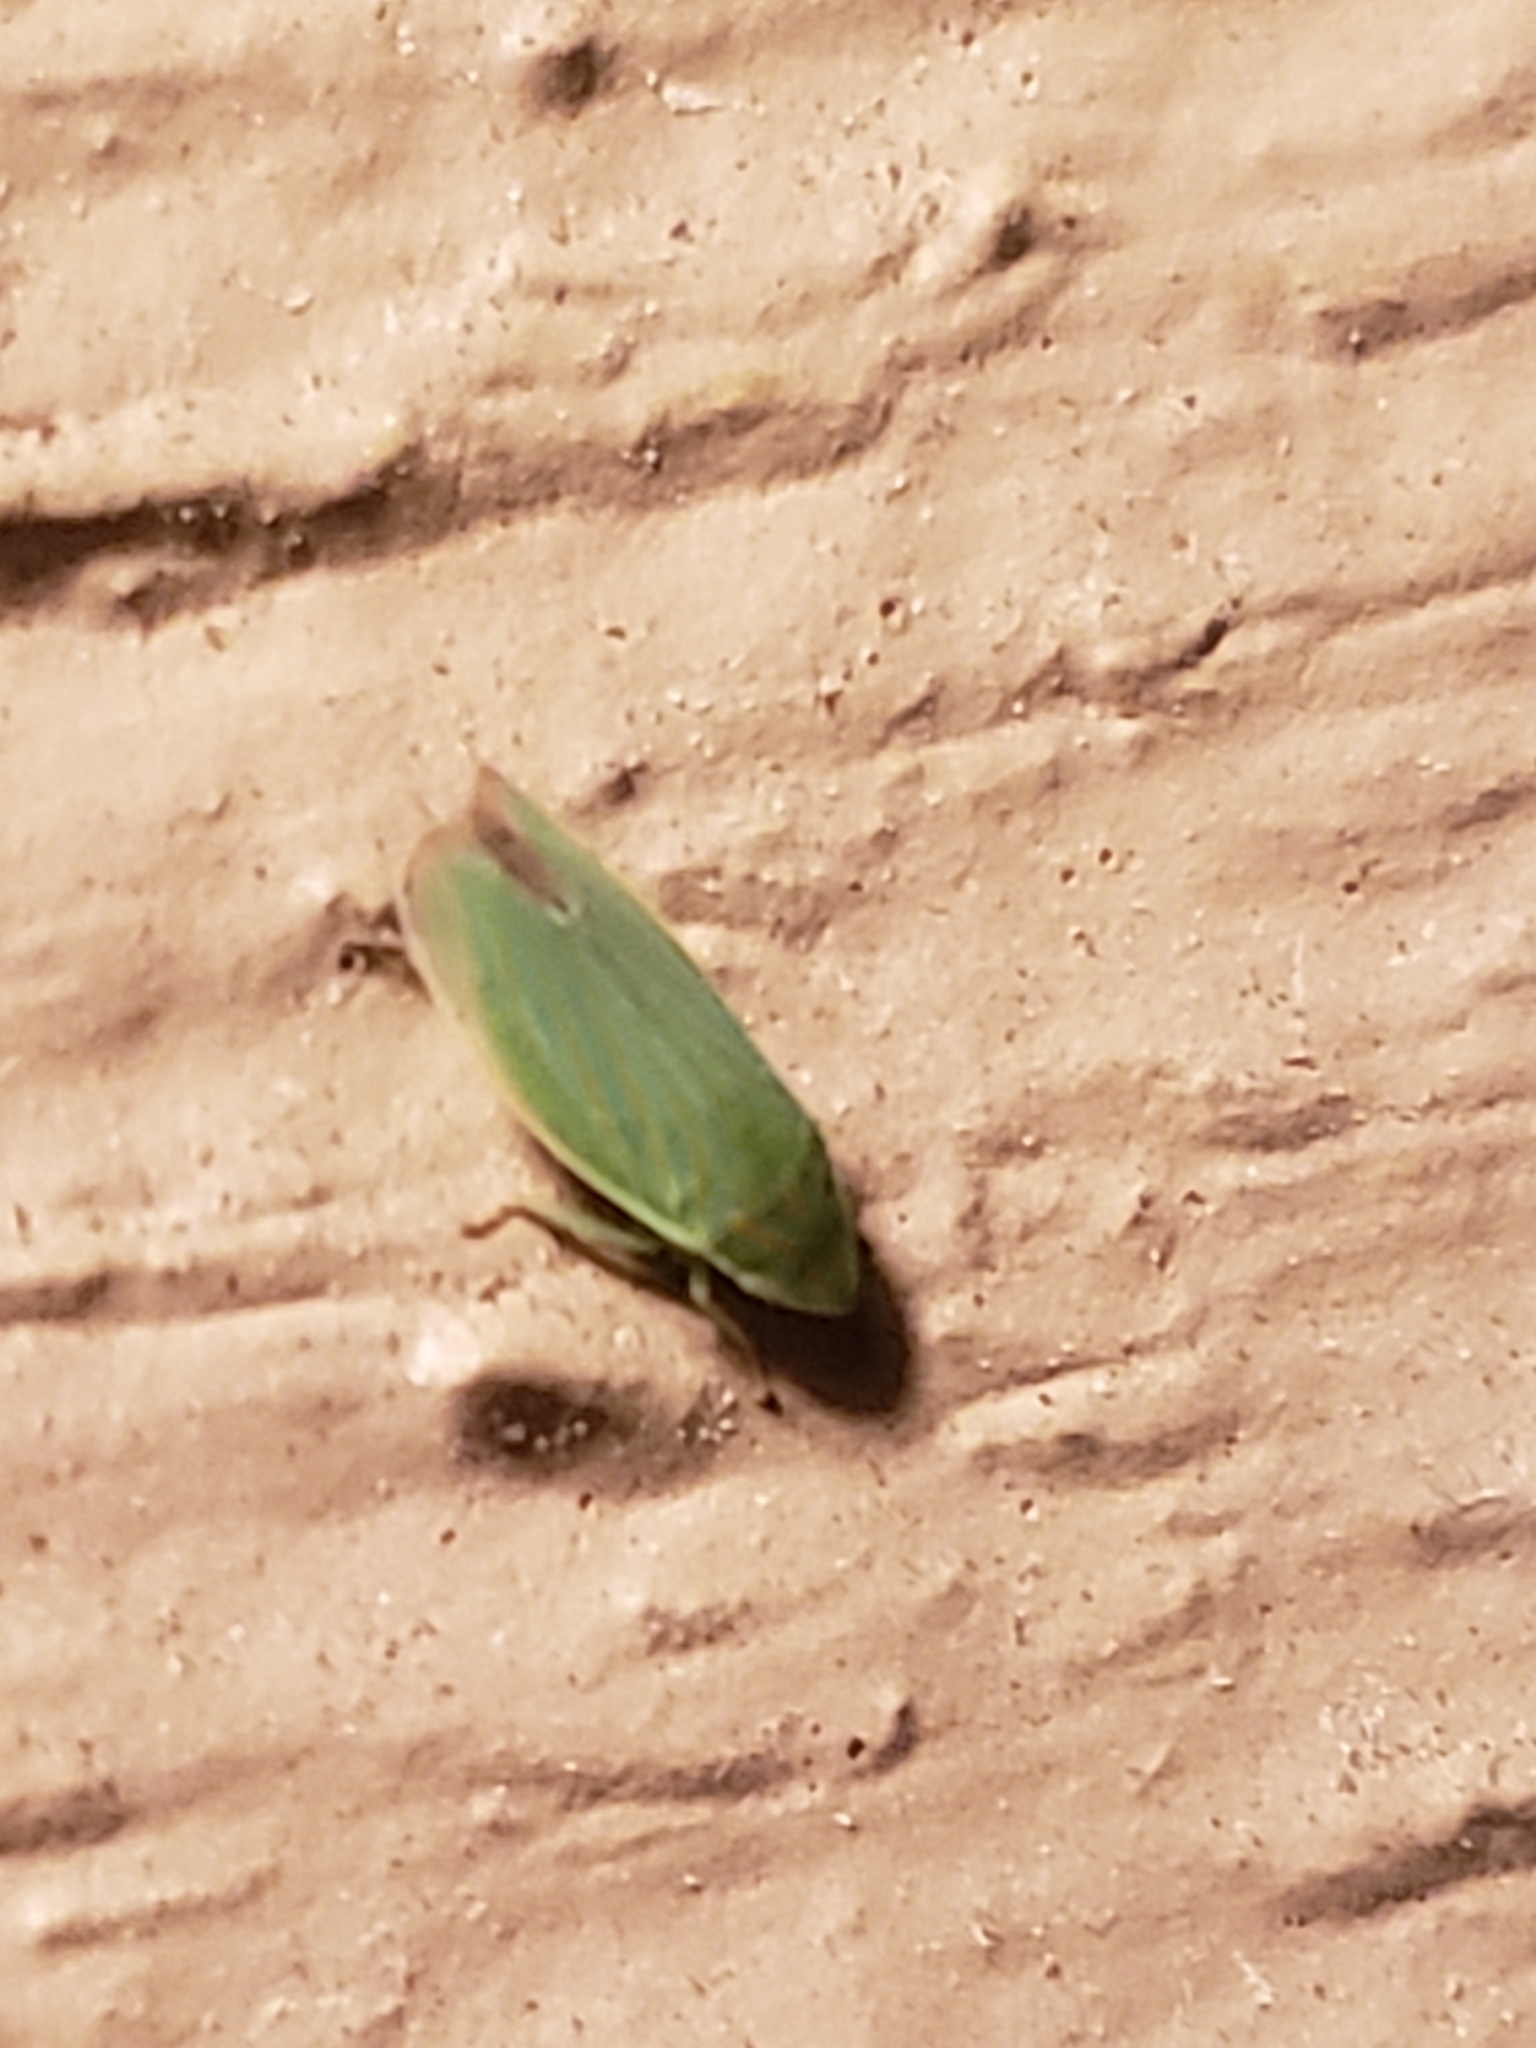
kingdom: Animalia
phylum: Arthropoda
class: Insecta
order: Hemiptera
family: Cicadellidae
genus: Spangbergiella
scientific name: Spangbergiella quadripunctata
